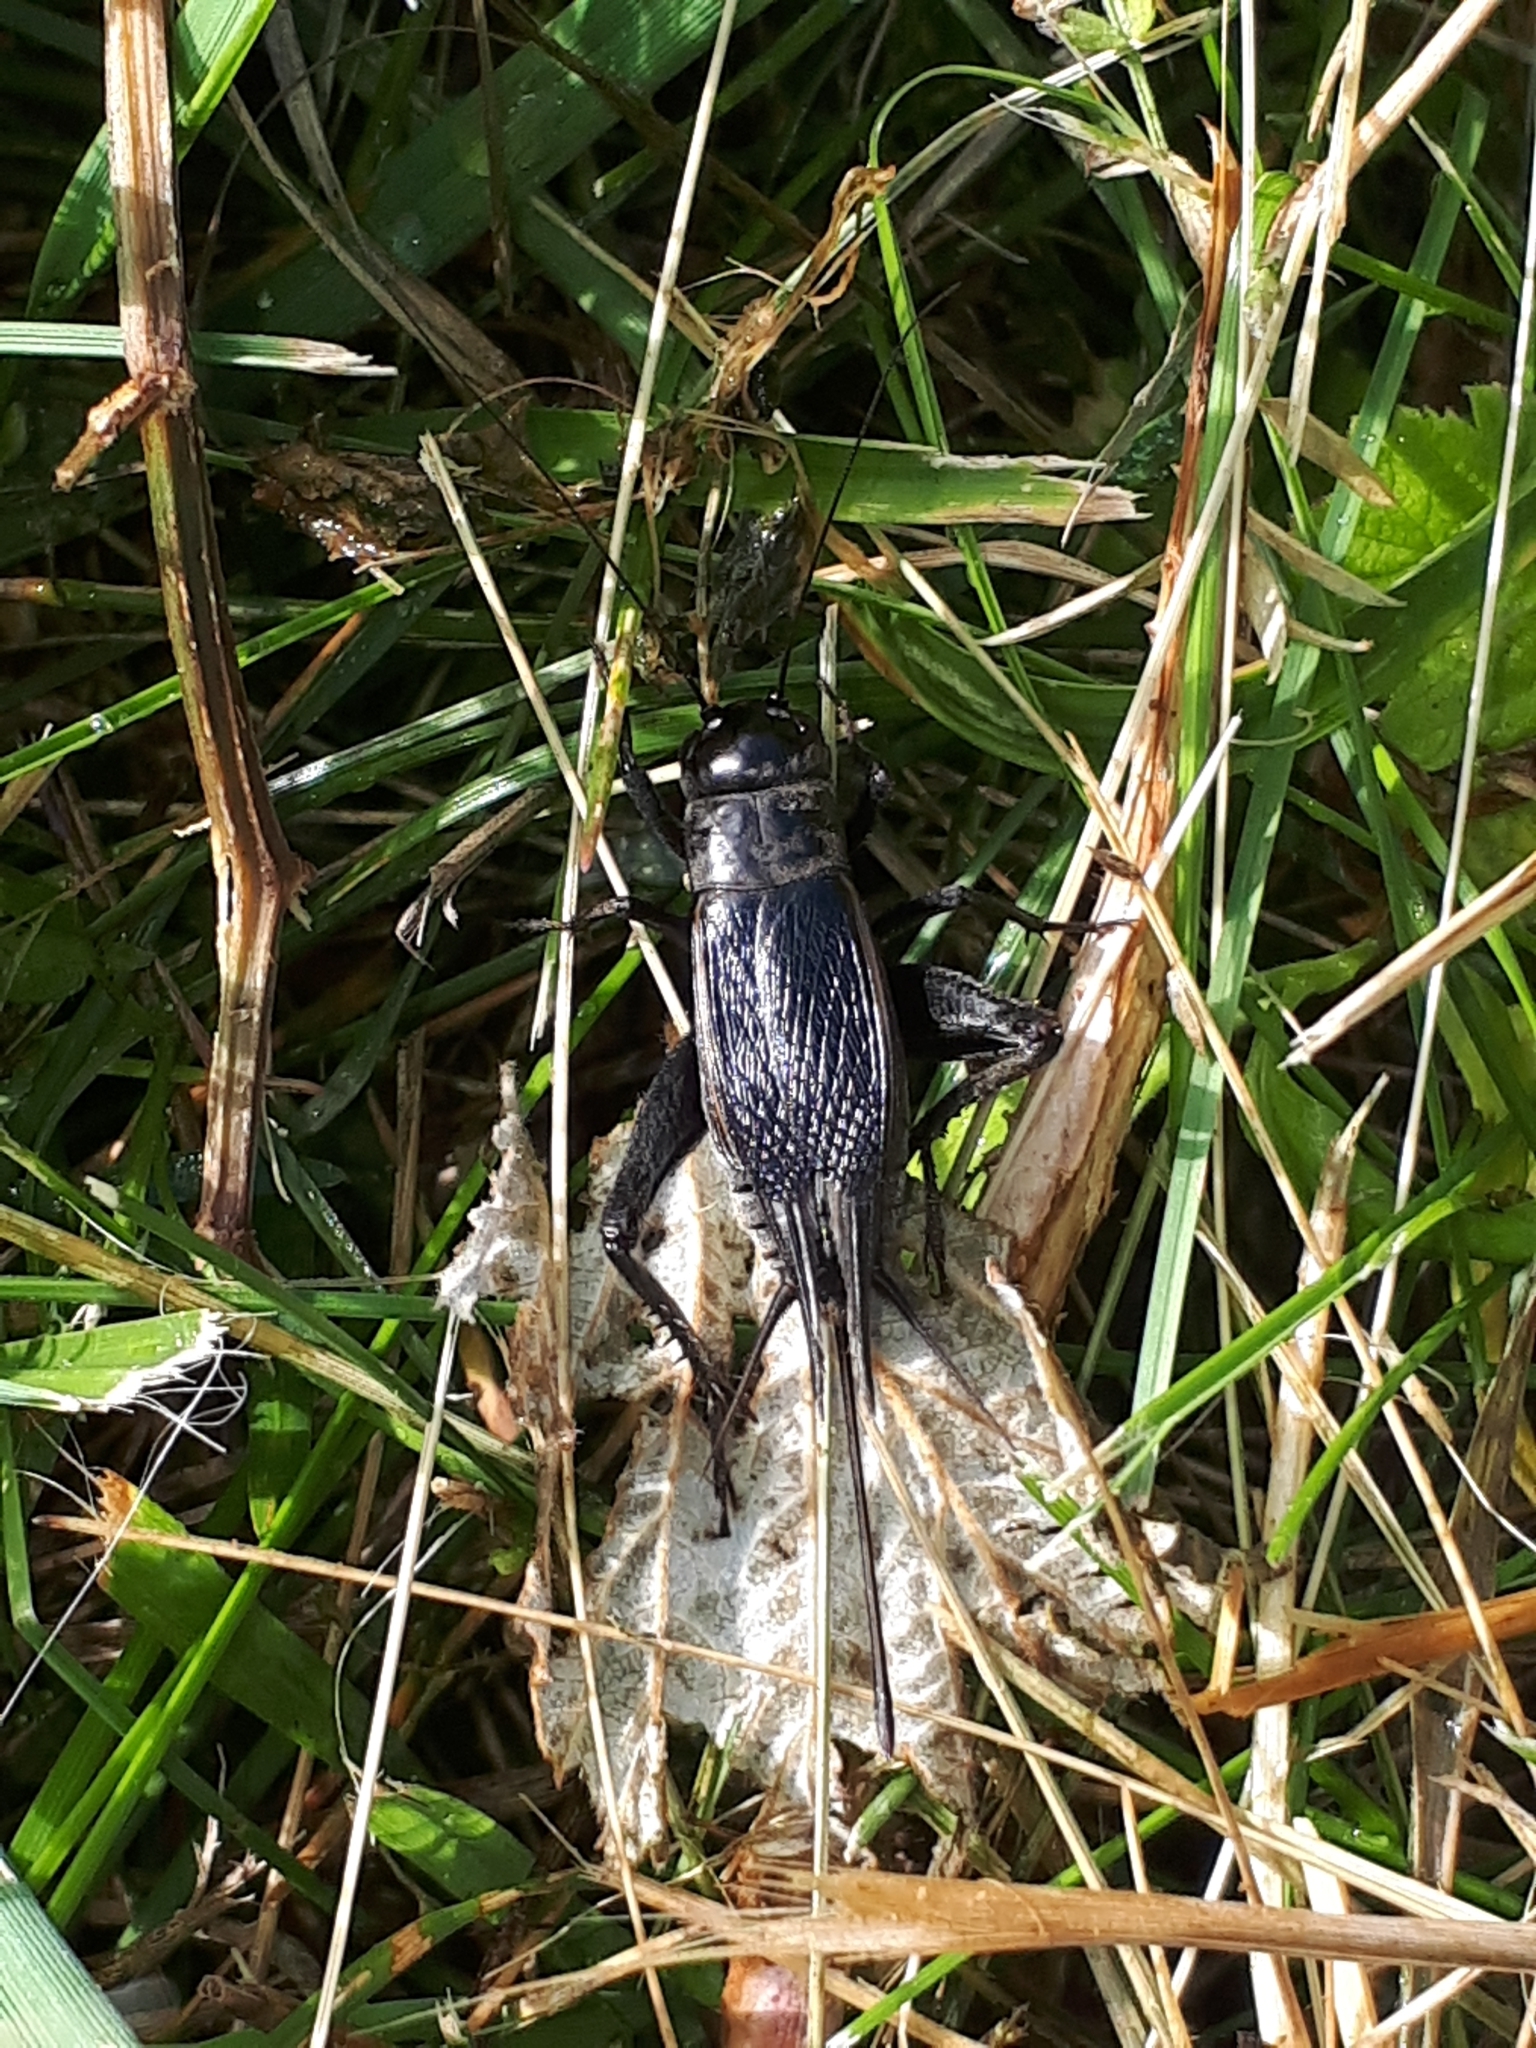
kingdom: Animalia
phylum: Arthropoda
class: Insecta
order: Orthoptera
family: Gryllidae
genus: Gryllus
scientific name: Gryllus pennsylvanicus
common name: Fall field cricket
